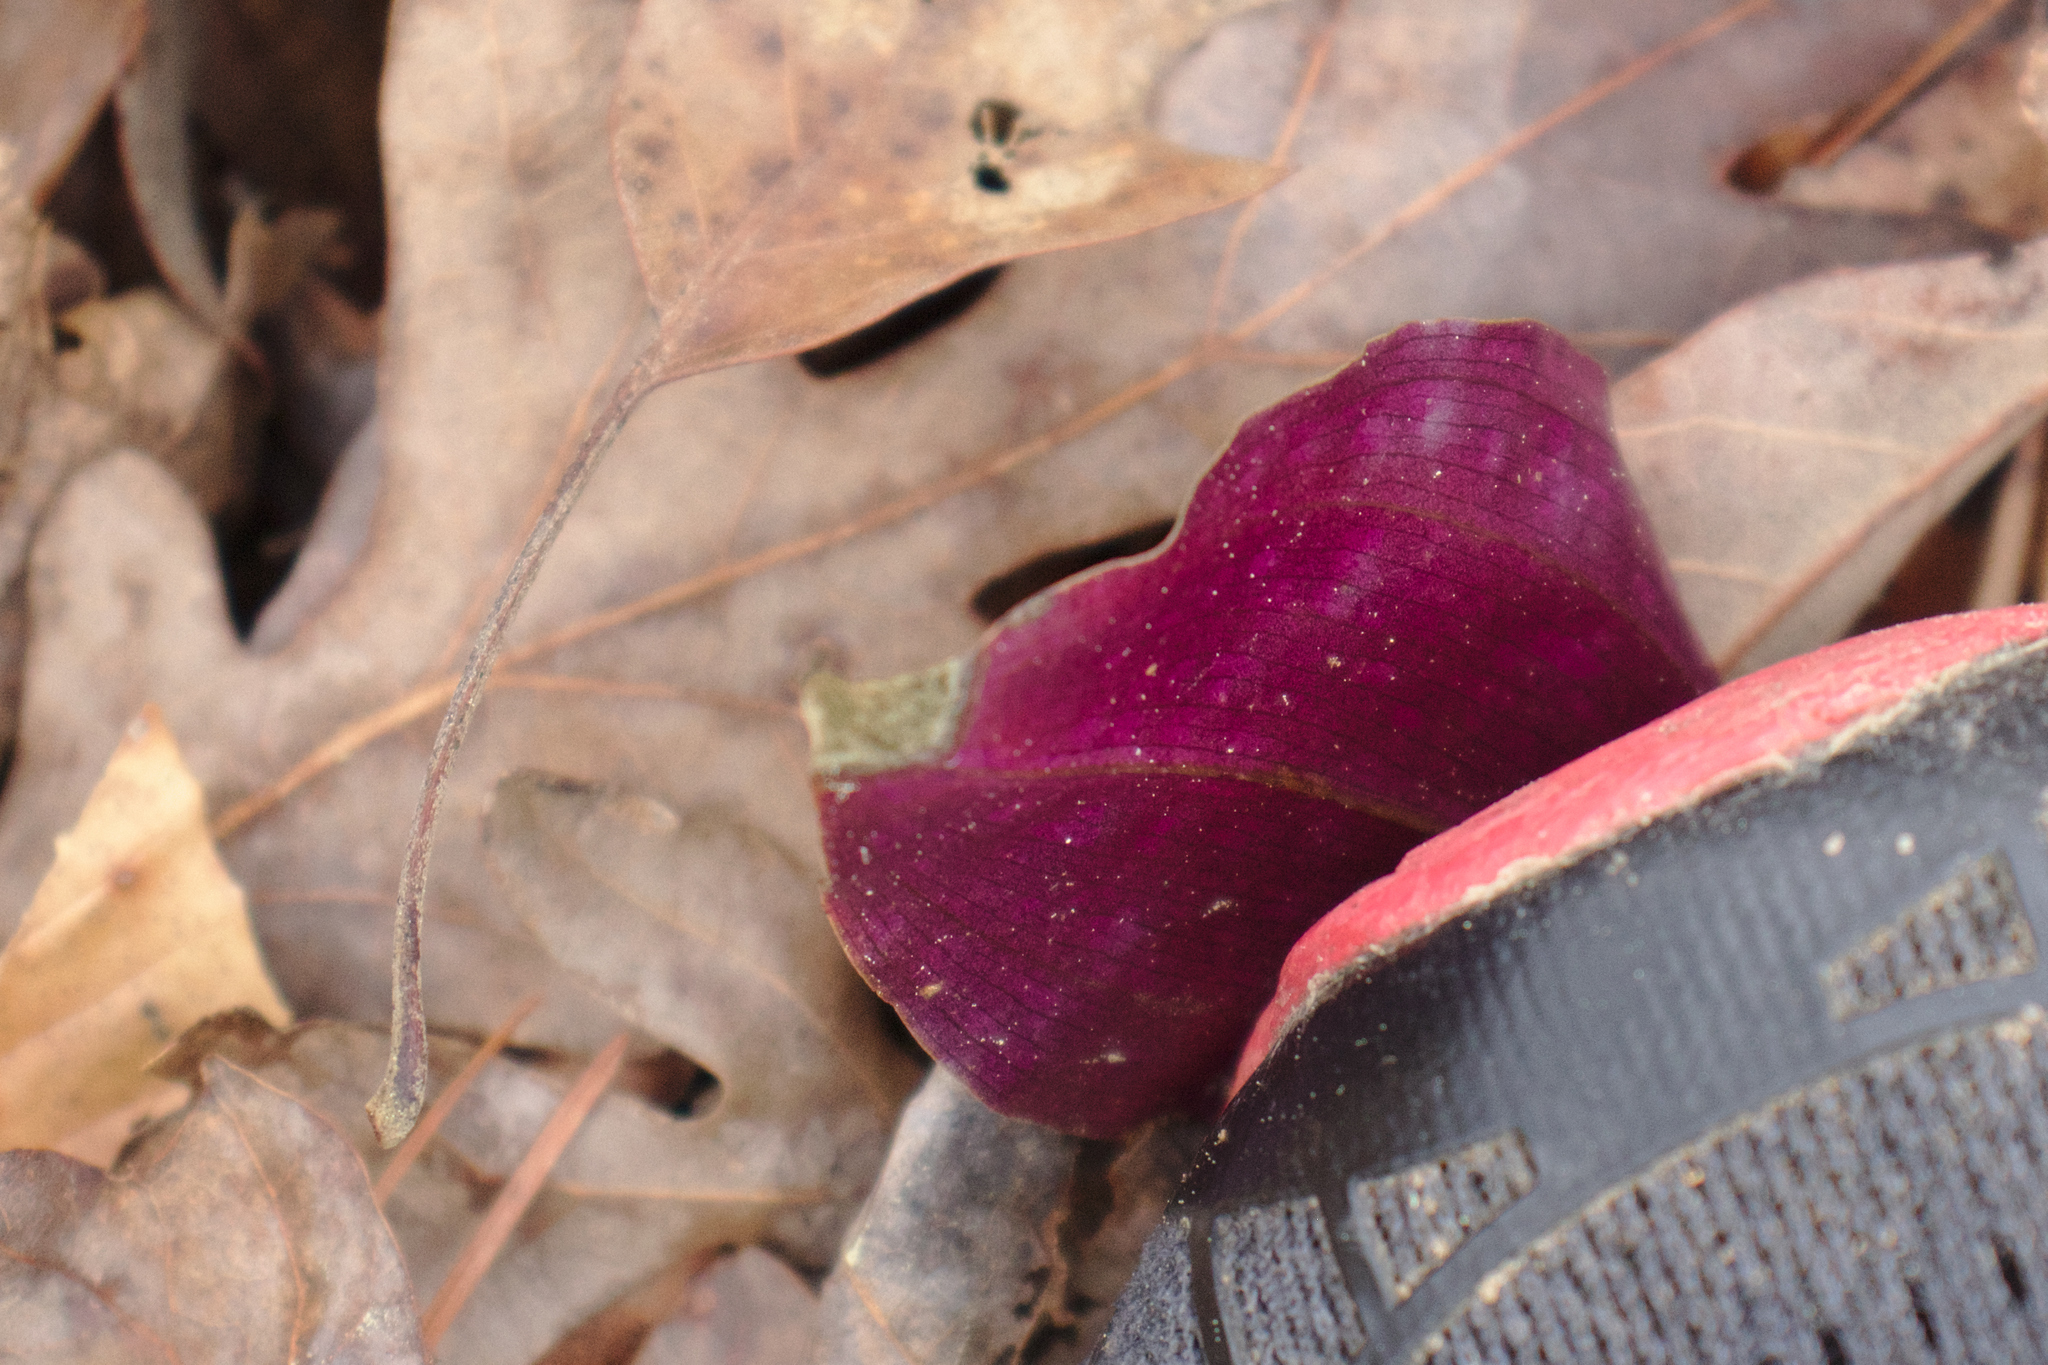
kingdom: Plantae
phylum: Tracheophyta
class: Liliopsida
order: Asparagales
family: Orchidaceae
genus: Tipularia
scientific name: Tipularia discolor
